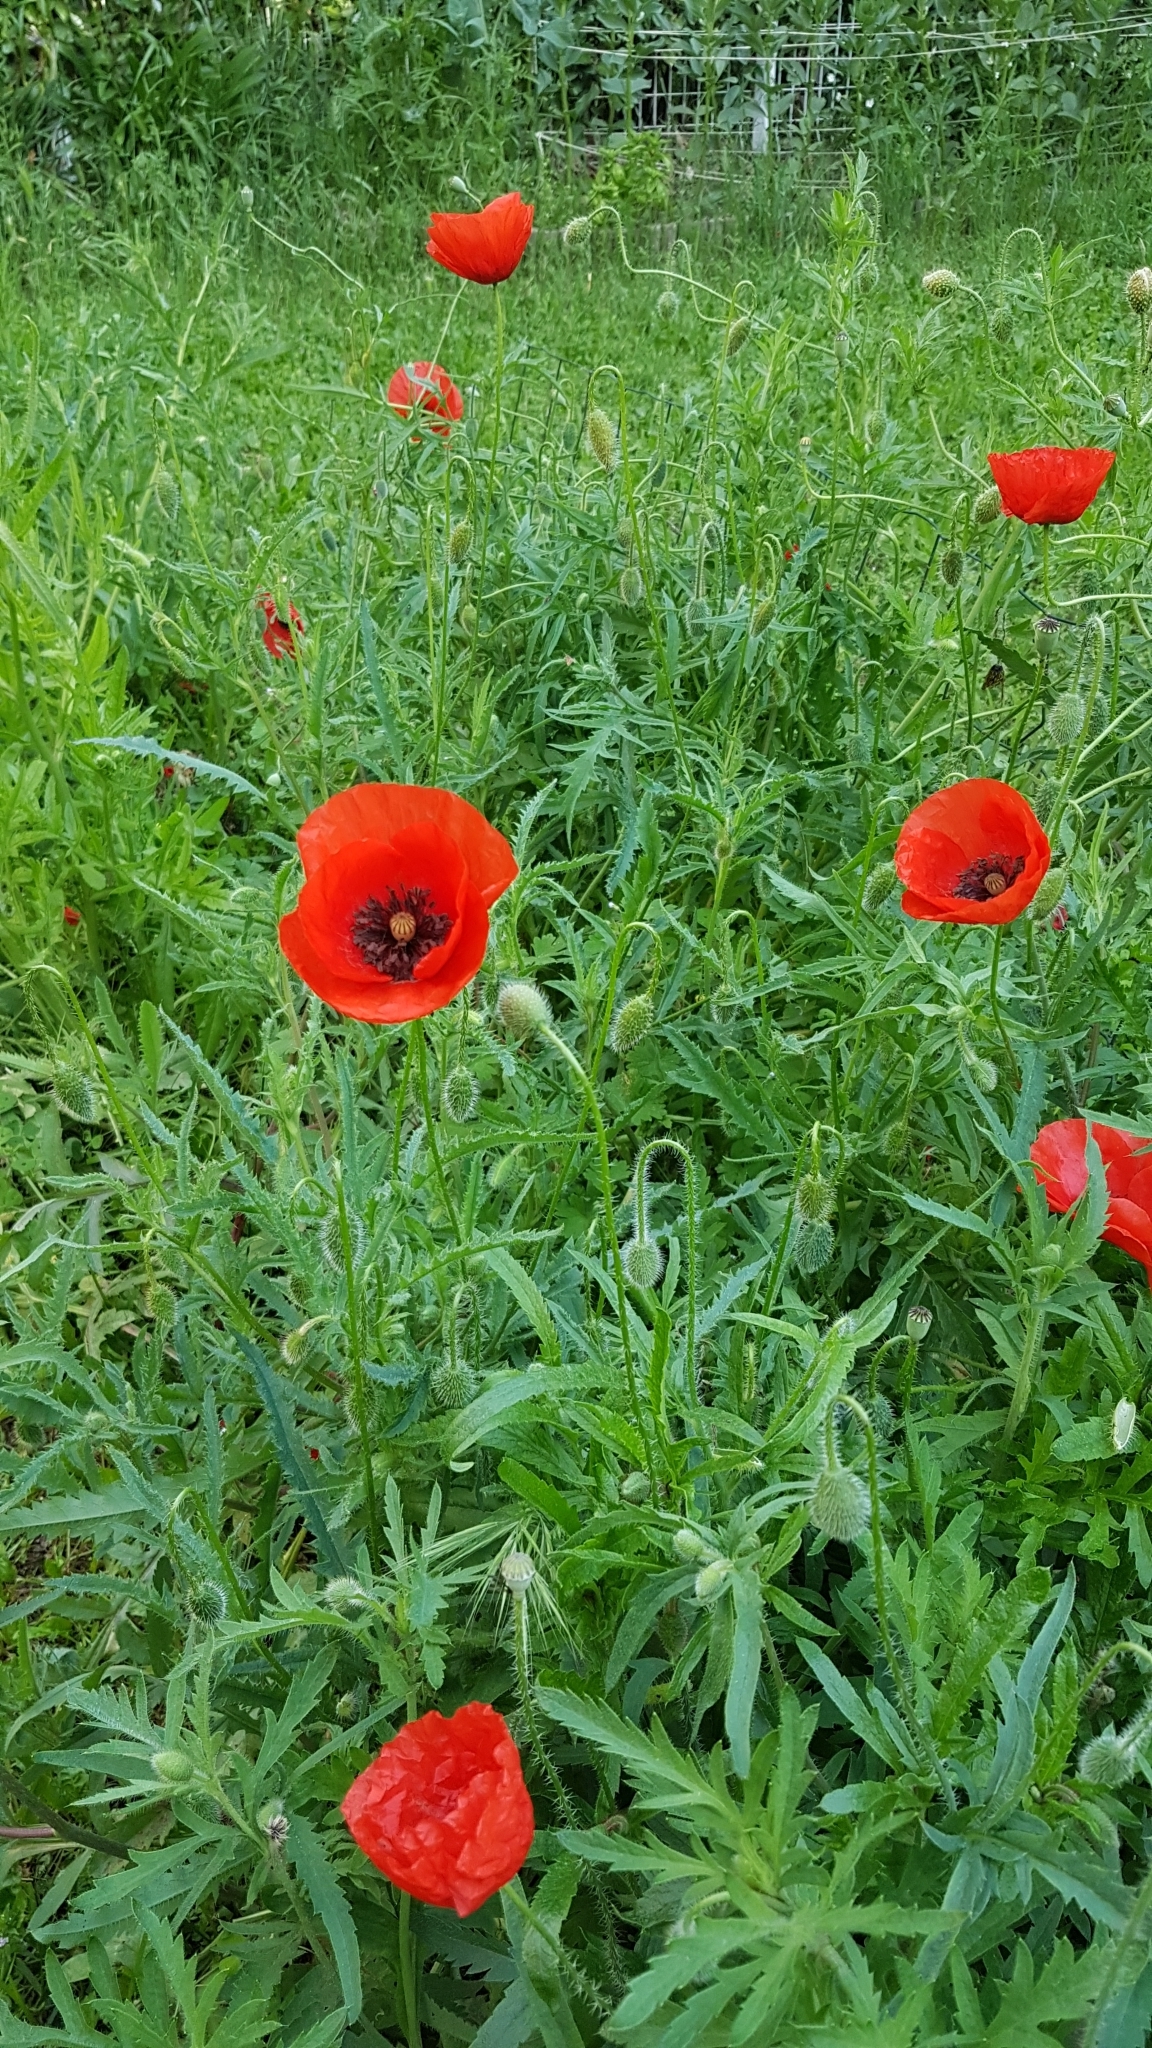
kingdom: Plantae
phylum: Tracheophyta
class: Magnoliopsida
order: Ranunculales
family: Papaveraceae
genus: Papaver
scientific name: Papaver rhoeas
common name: Corn poppy
